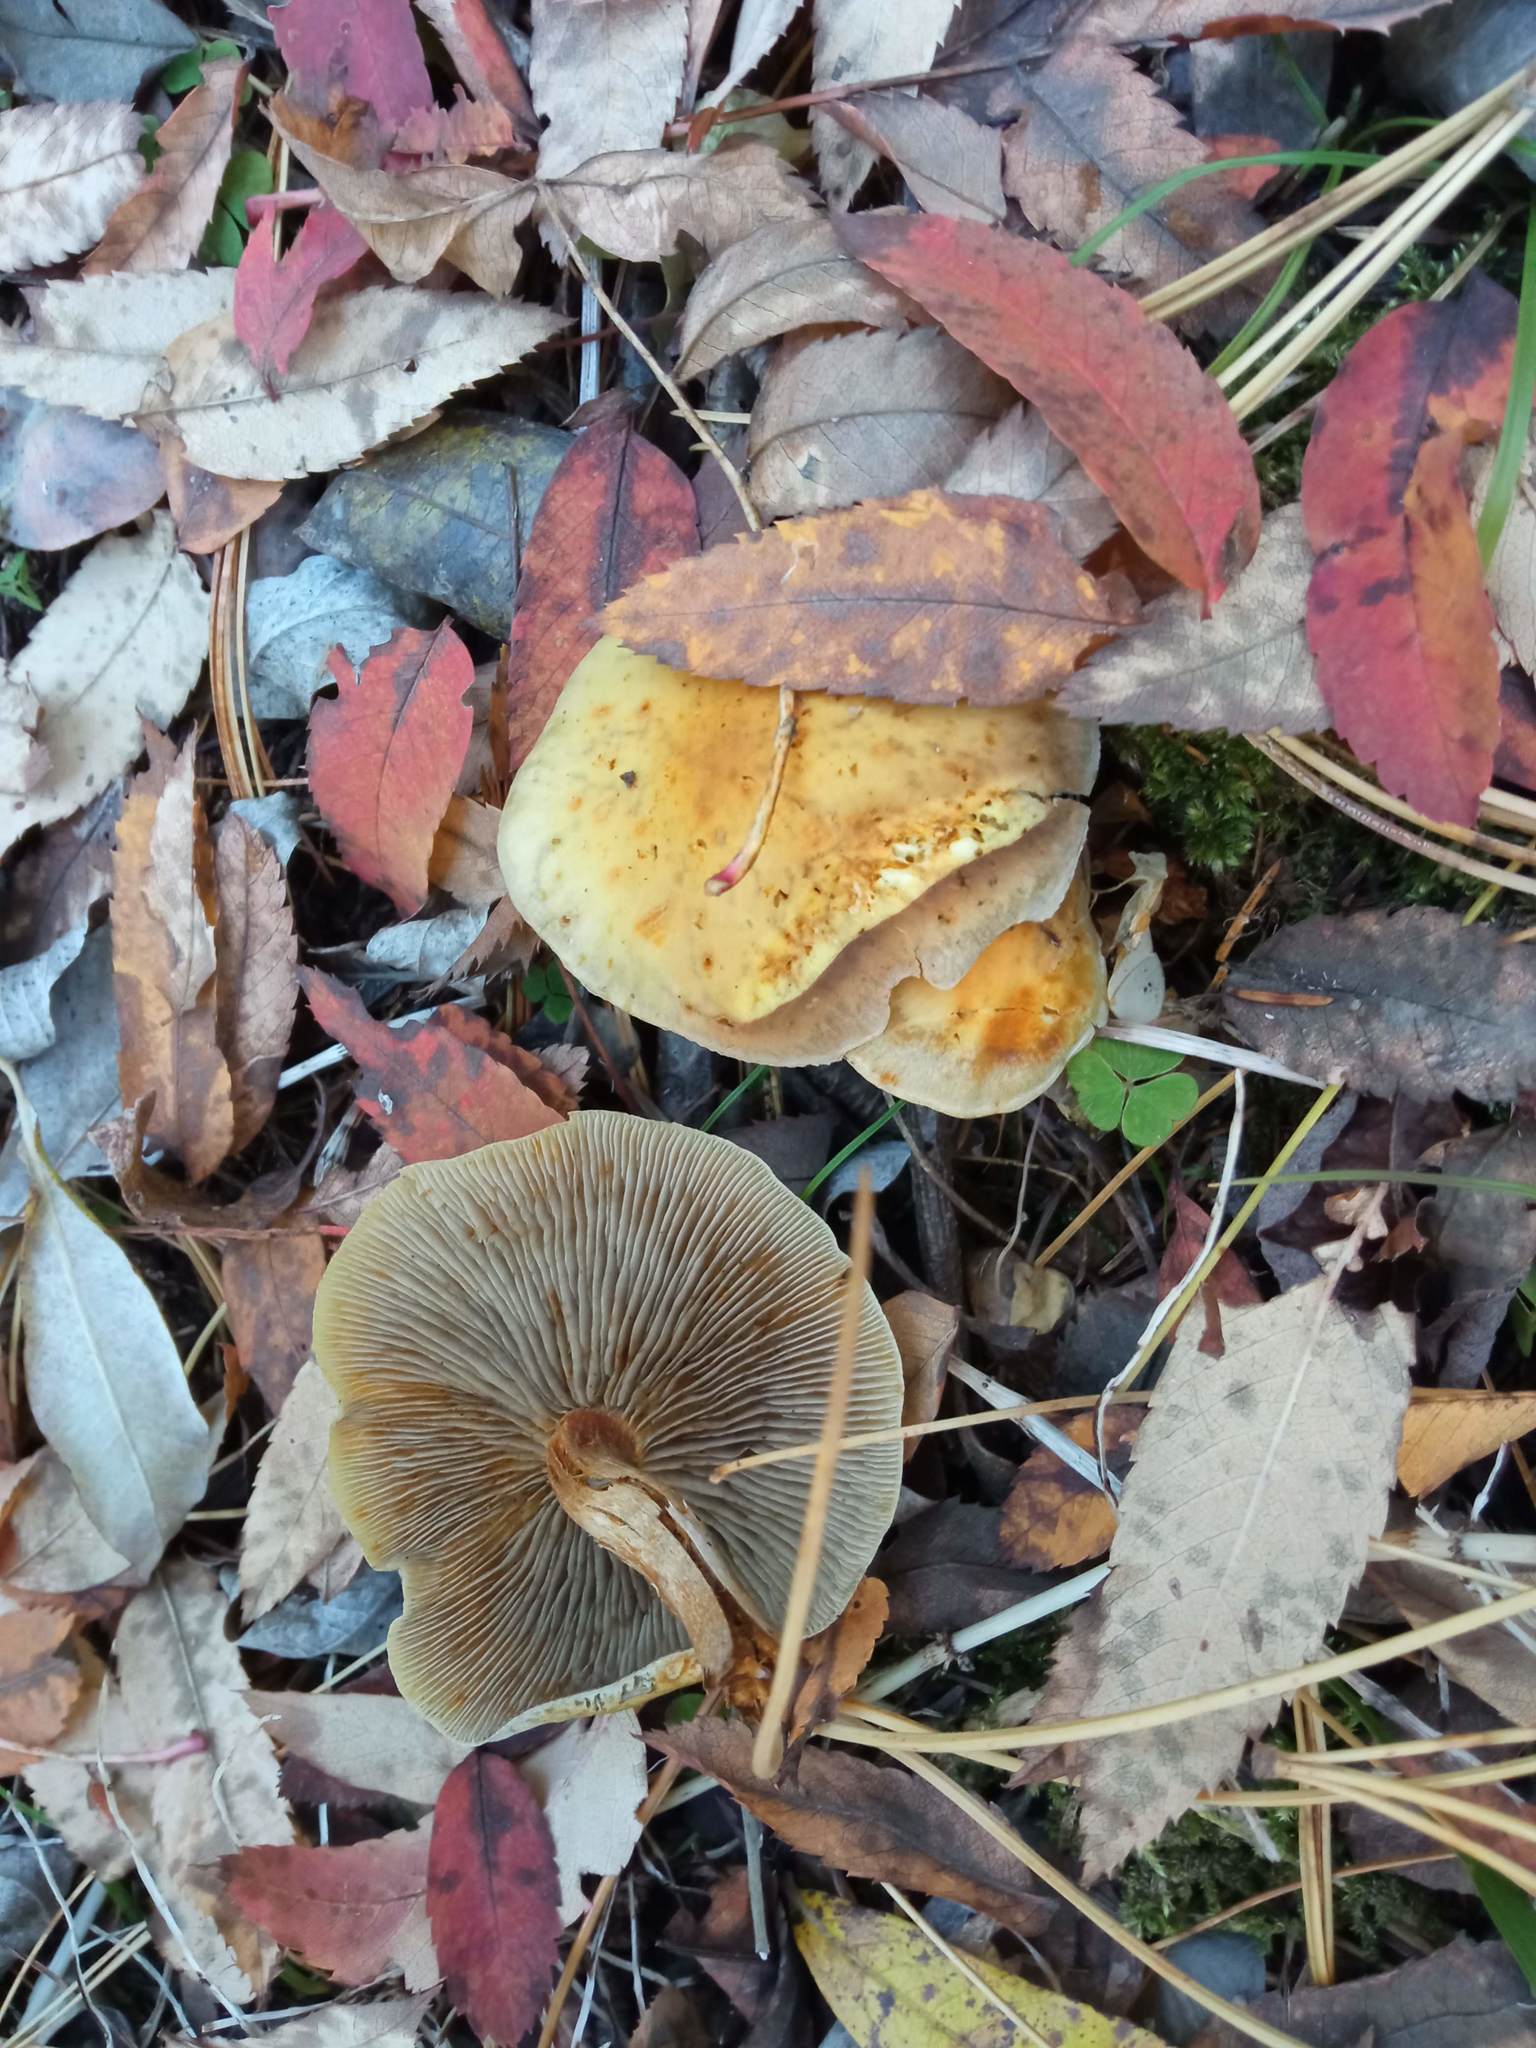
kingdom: Fungi
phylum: Basidiomycota
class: Agaricomycetes
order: Agaricales
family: Strophariaceae
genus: Hypholoma
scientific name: Hypholoma capnoides
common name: Conifer tuft
